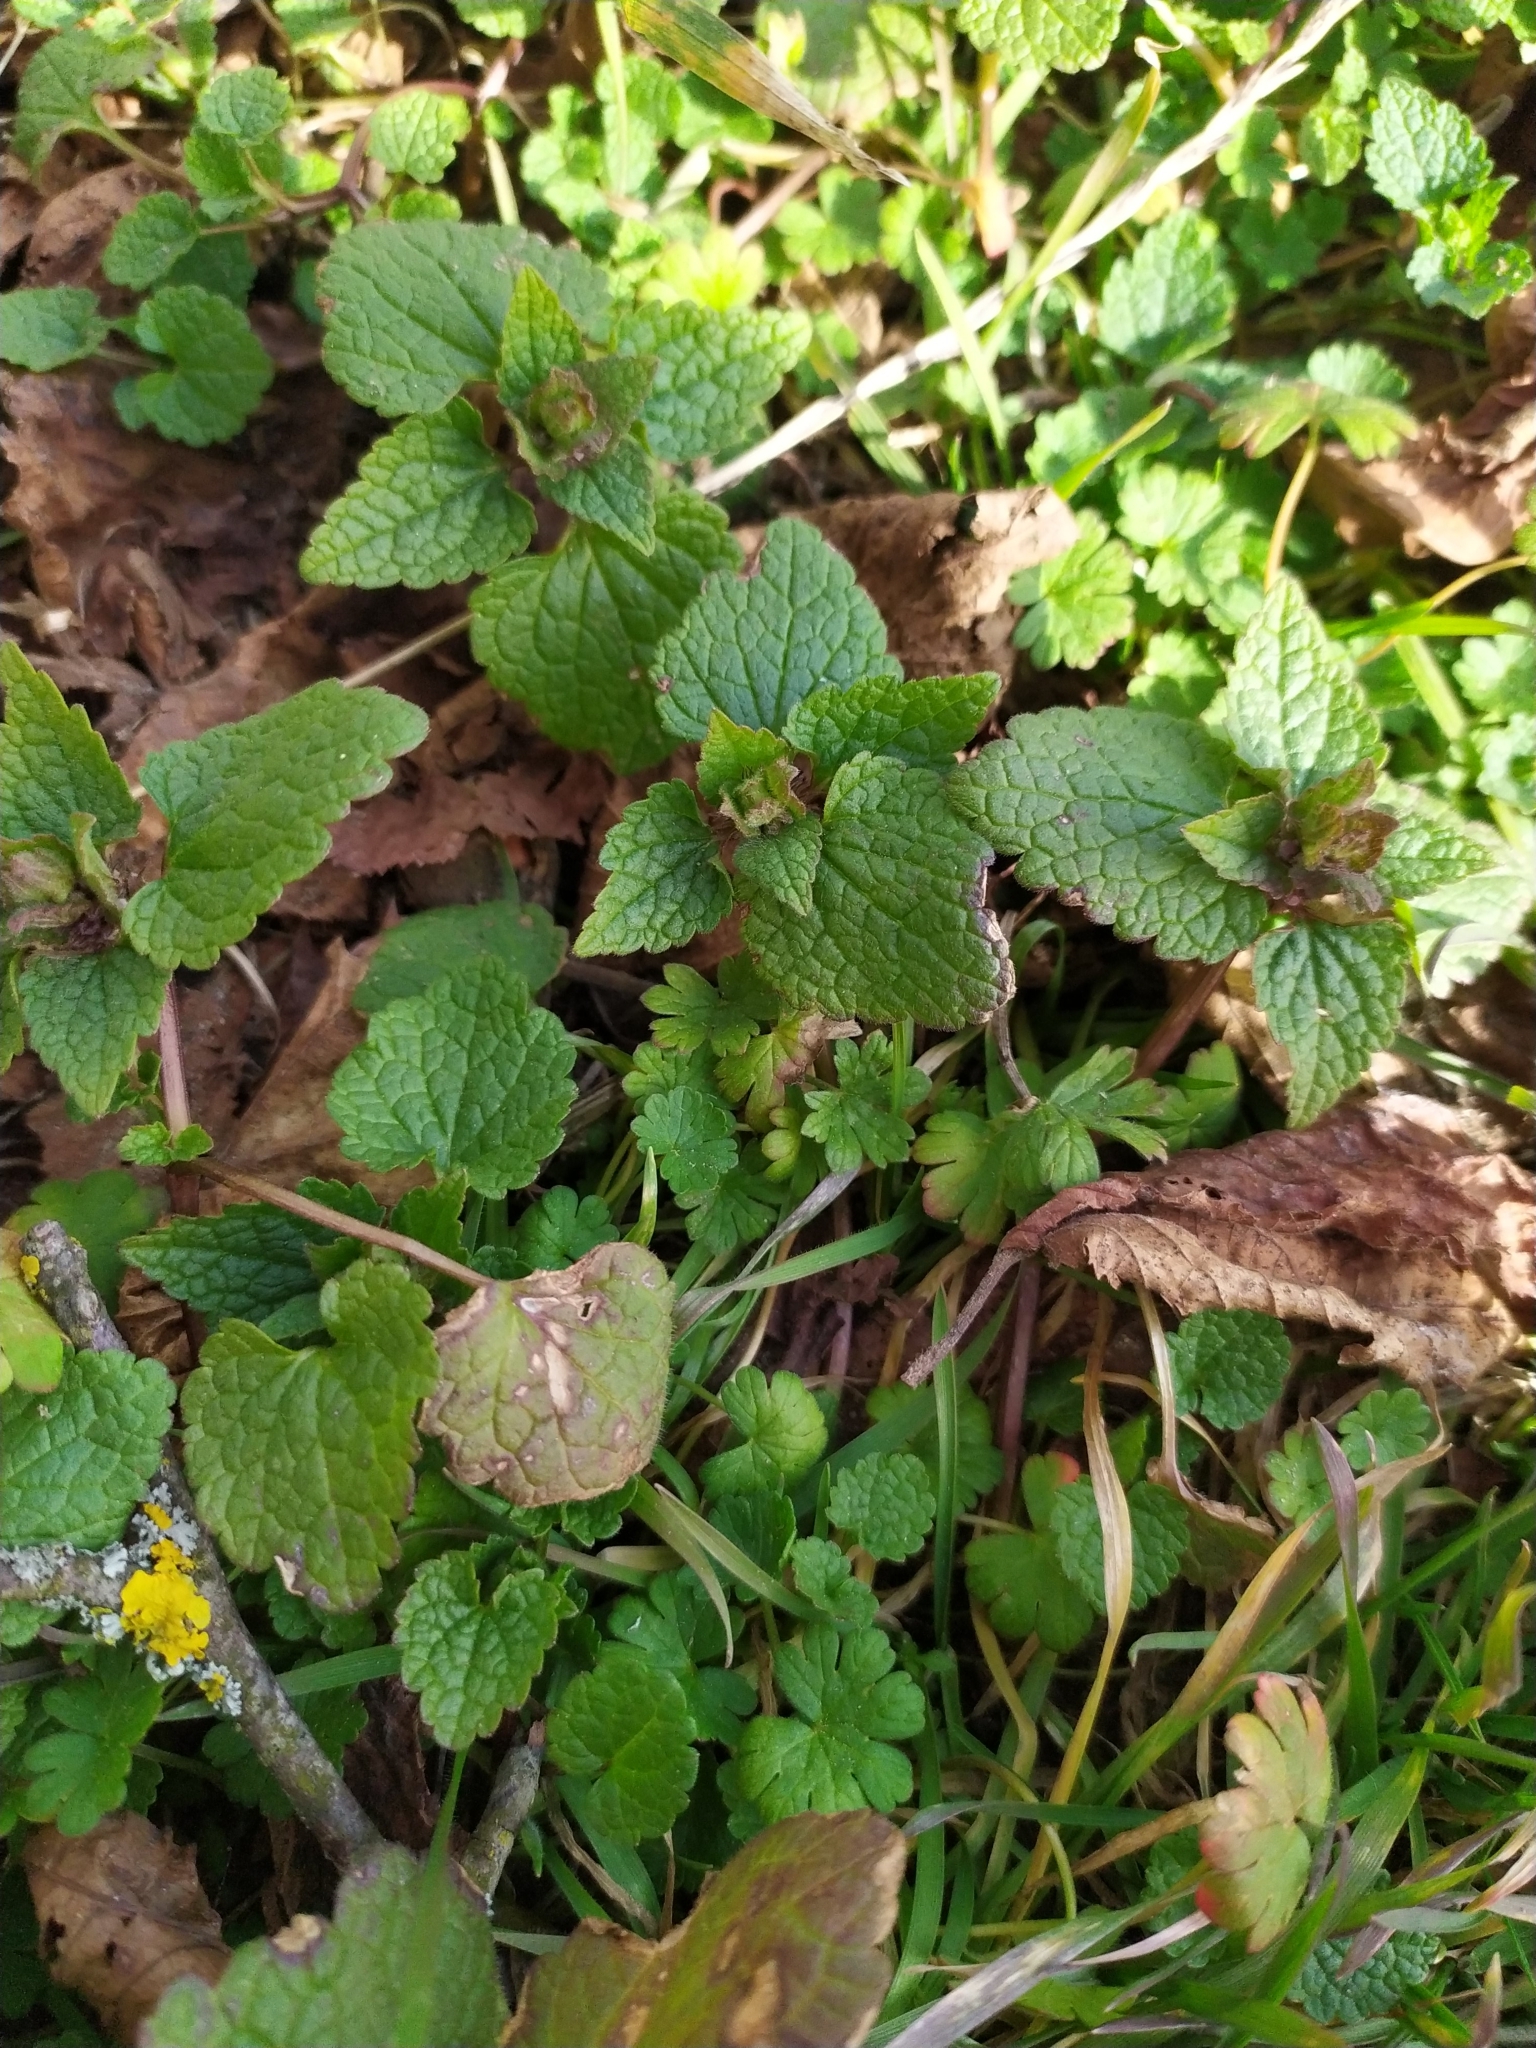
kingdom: Plantae
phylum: Tracheophyta
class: Magnoliopsida
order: Lamiales
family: Lamiaceae
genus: Lamium
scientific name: Lamium purpureum
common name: Red dead-nettle
